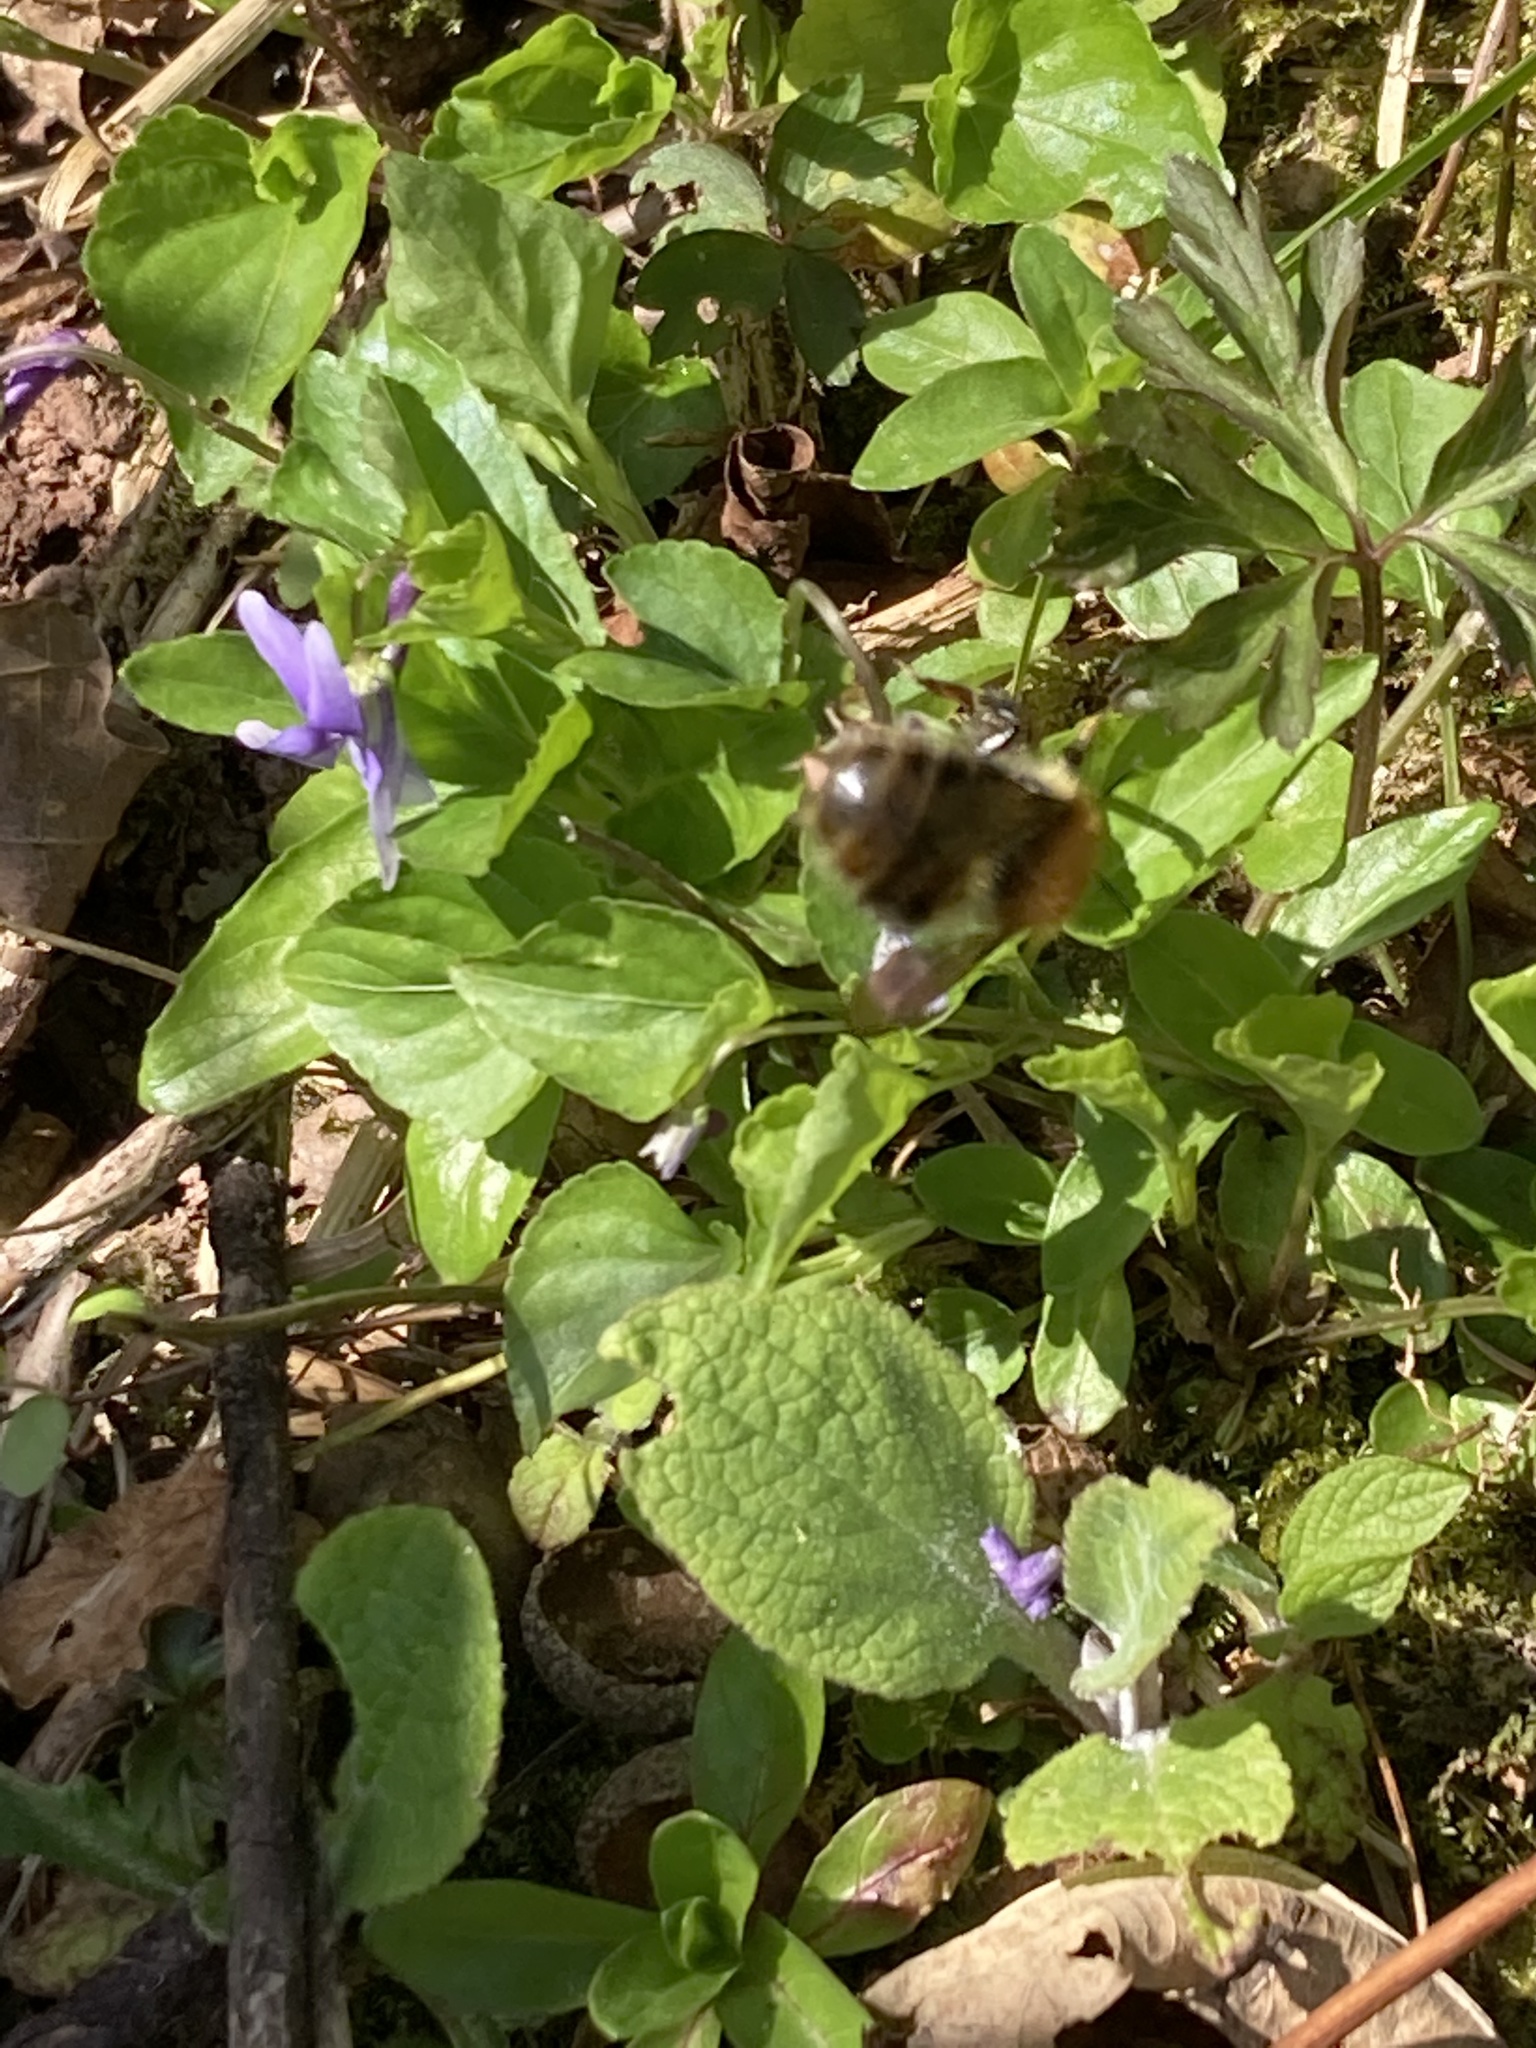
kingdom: Animalia
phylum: Arthropoda
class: Insecta
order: Hymenoptera
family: Apidae
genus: Bombus
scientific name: Bombus pascuorum
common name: Common carder bee
